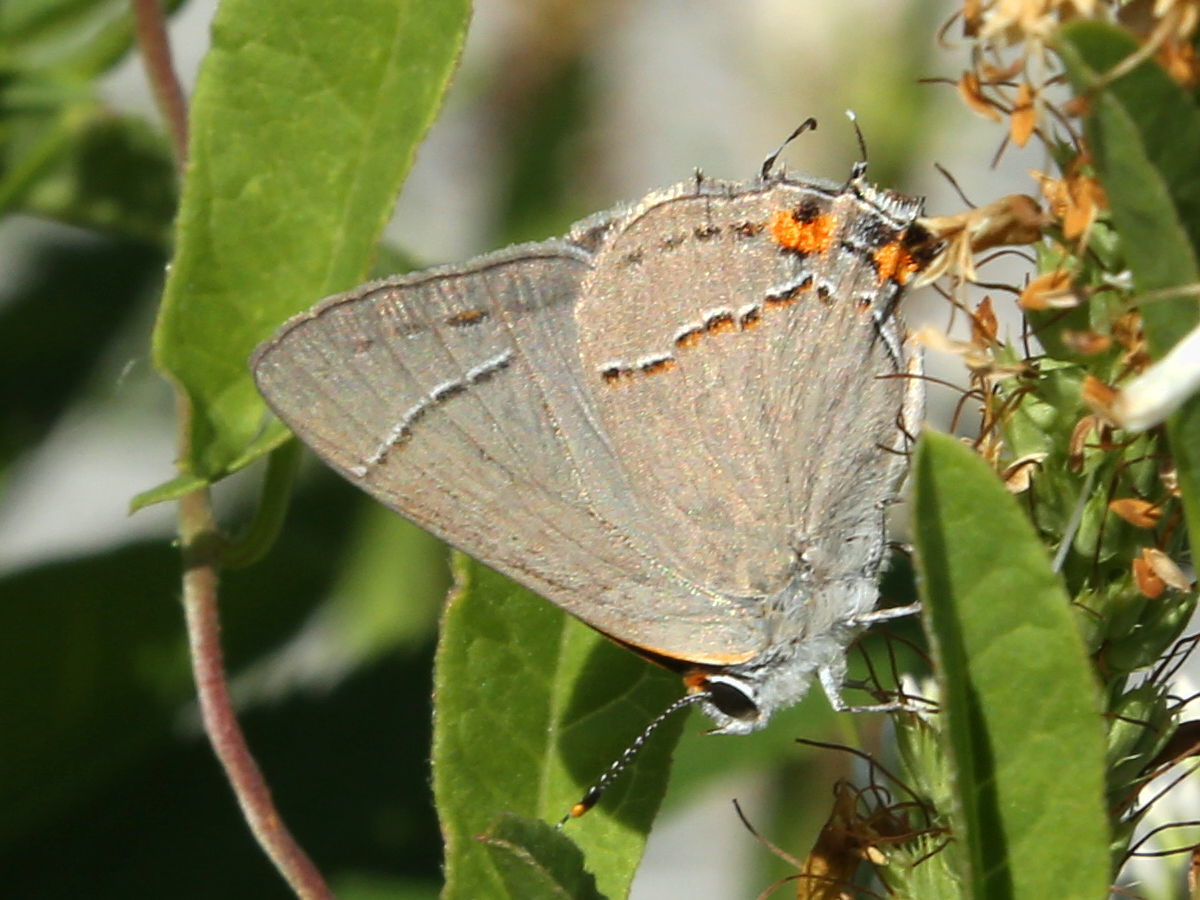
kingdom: Animalia
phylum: Arthropoda
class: Insecta
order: Lepidoptera
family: Lycaenidae
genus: Strymon
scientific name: Strymon melinus
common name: Gray hairstreak
